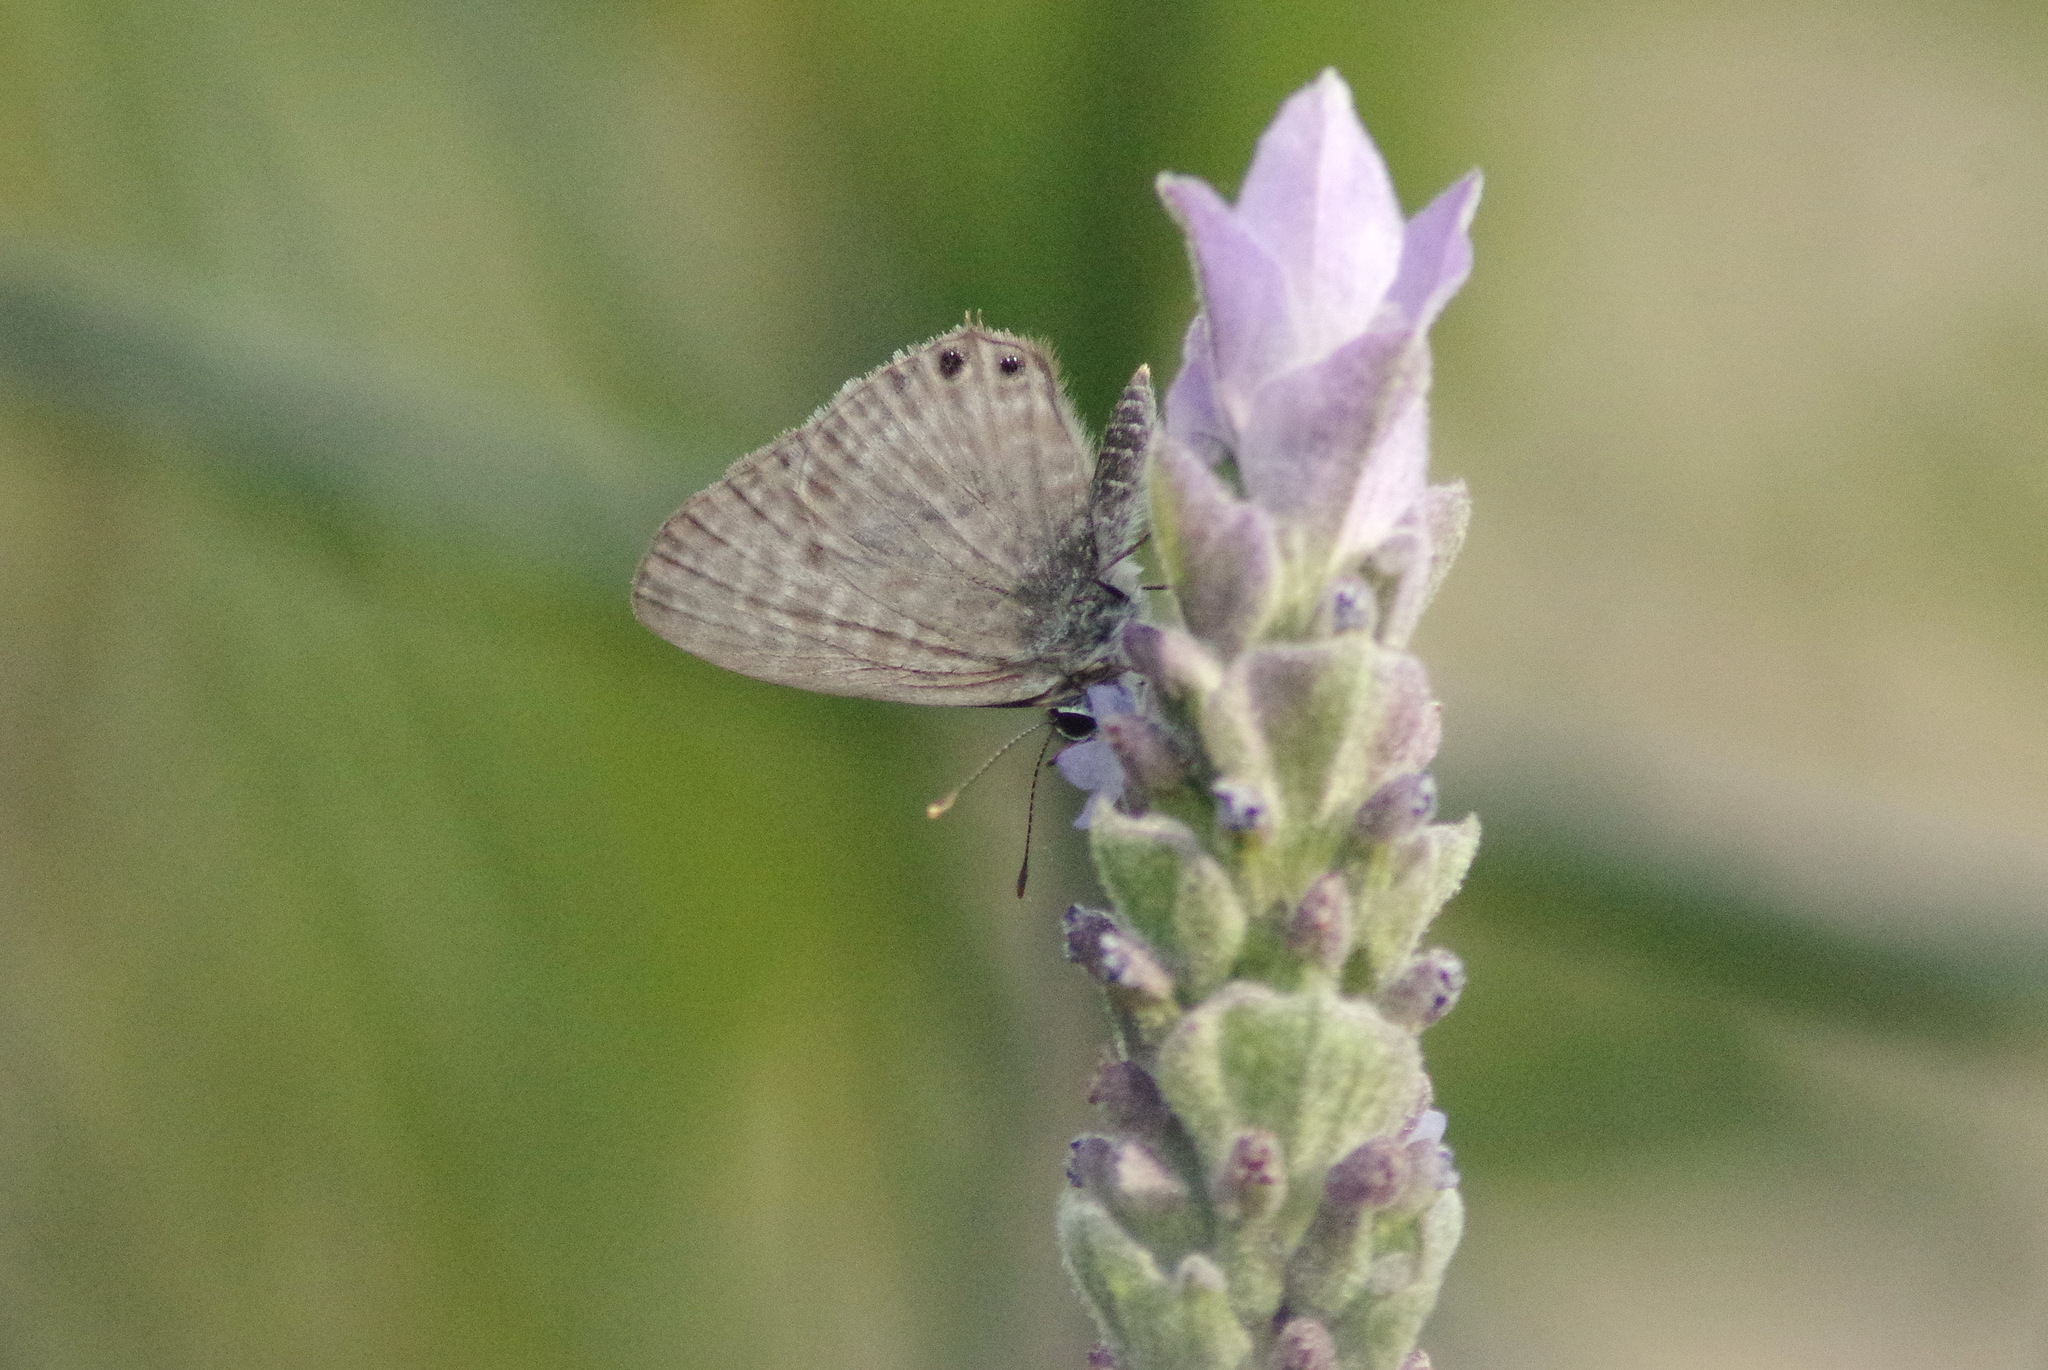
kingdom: Animalia
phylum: Arthropoda
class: Insecta
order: Lepidoptera
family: Lycaenidae
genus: Leptotes
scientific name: Leptotes pirithous
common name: Lang's short-tailed blue
